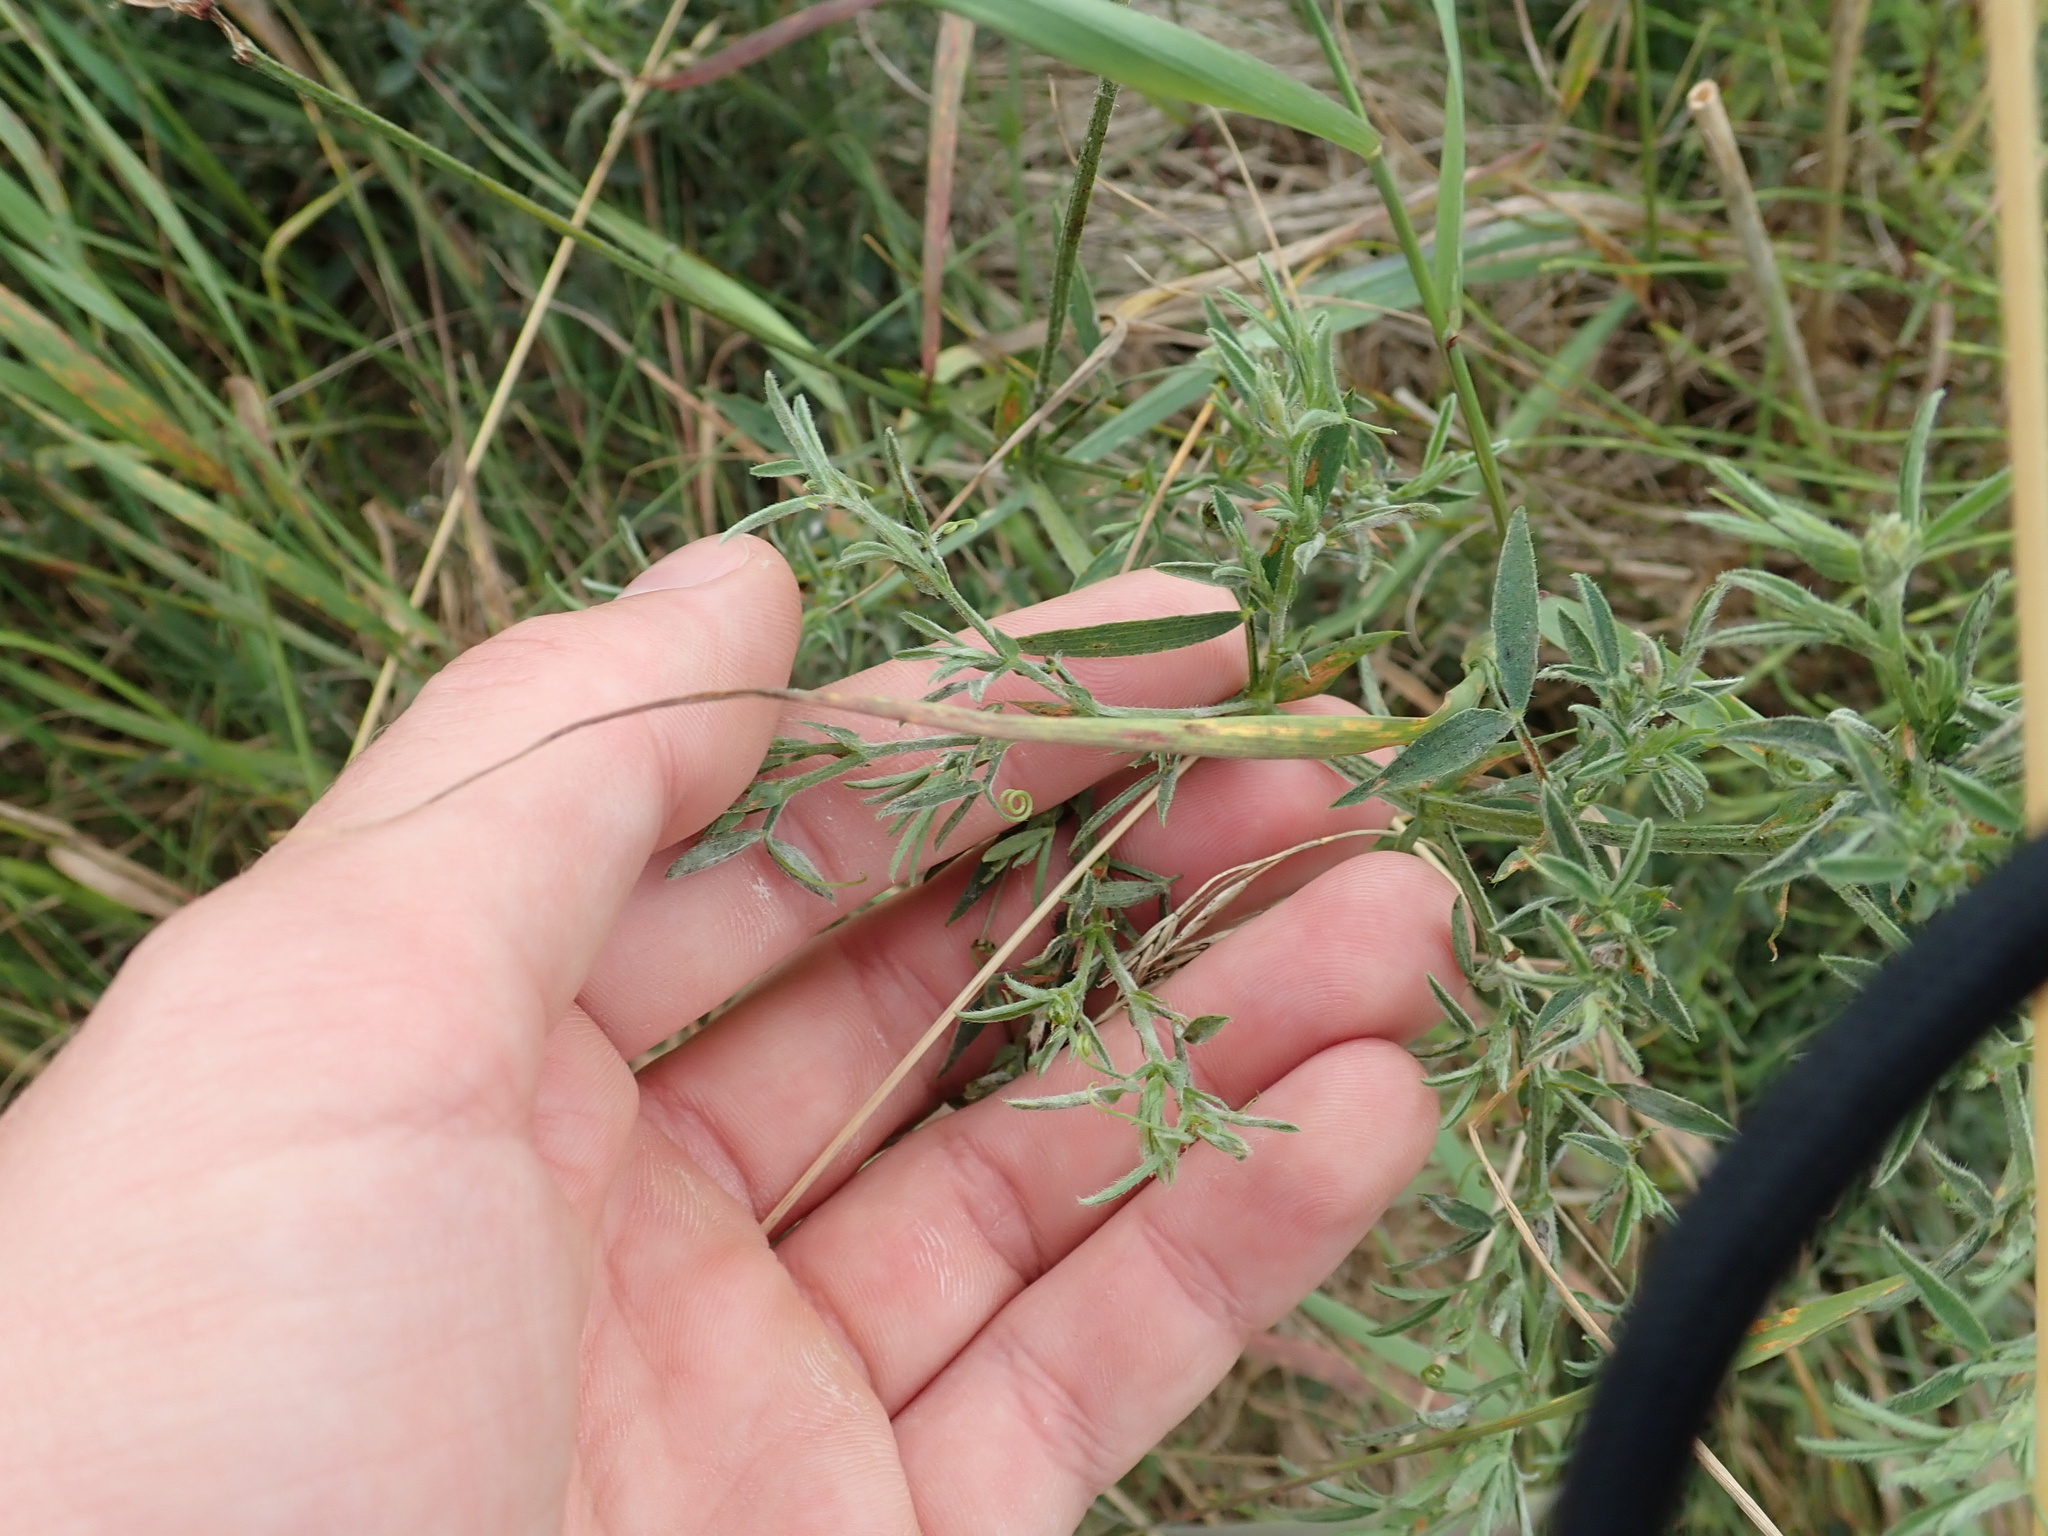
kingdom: Plantae
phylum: Tracheophyta
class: Magnoliopsida
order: Fabales
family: Fabaceae
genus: Lathyrus
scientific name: Lathyrus pratensis
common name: Meadow vetchling
